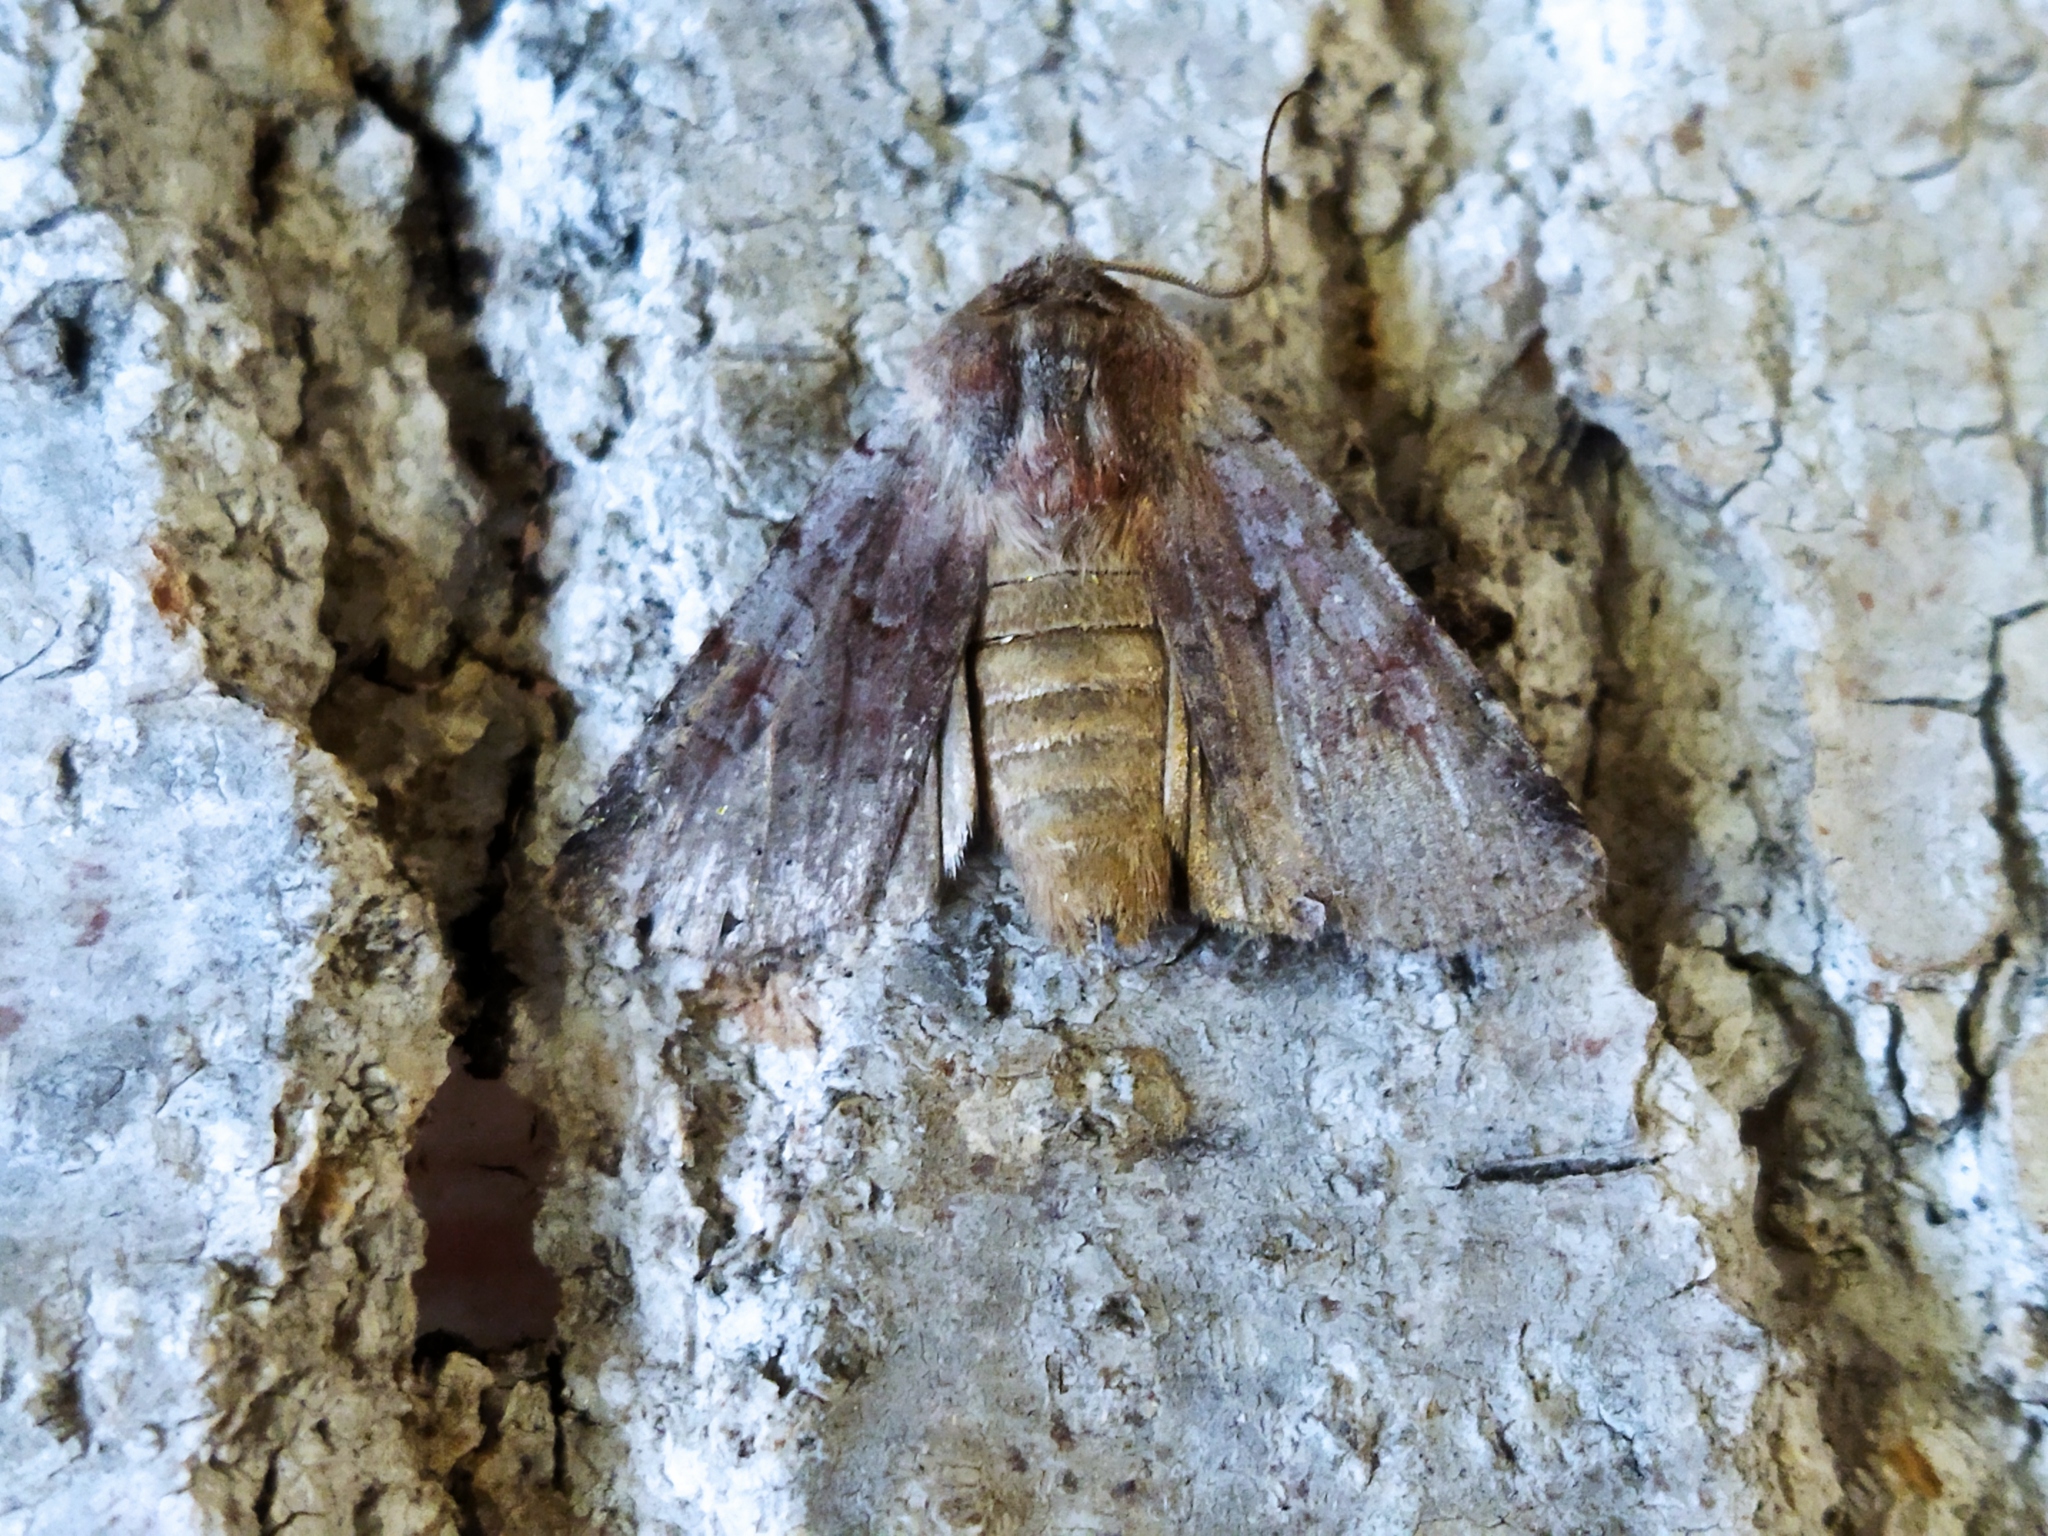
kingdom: Animalia
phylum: Arthropoda
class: Insecta
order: Lepidoptera
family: Noctuidae
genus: Cerastis
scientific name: Cerastis rubricosa
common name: Red chestnut
